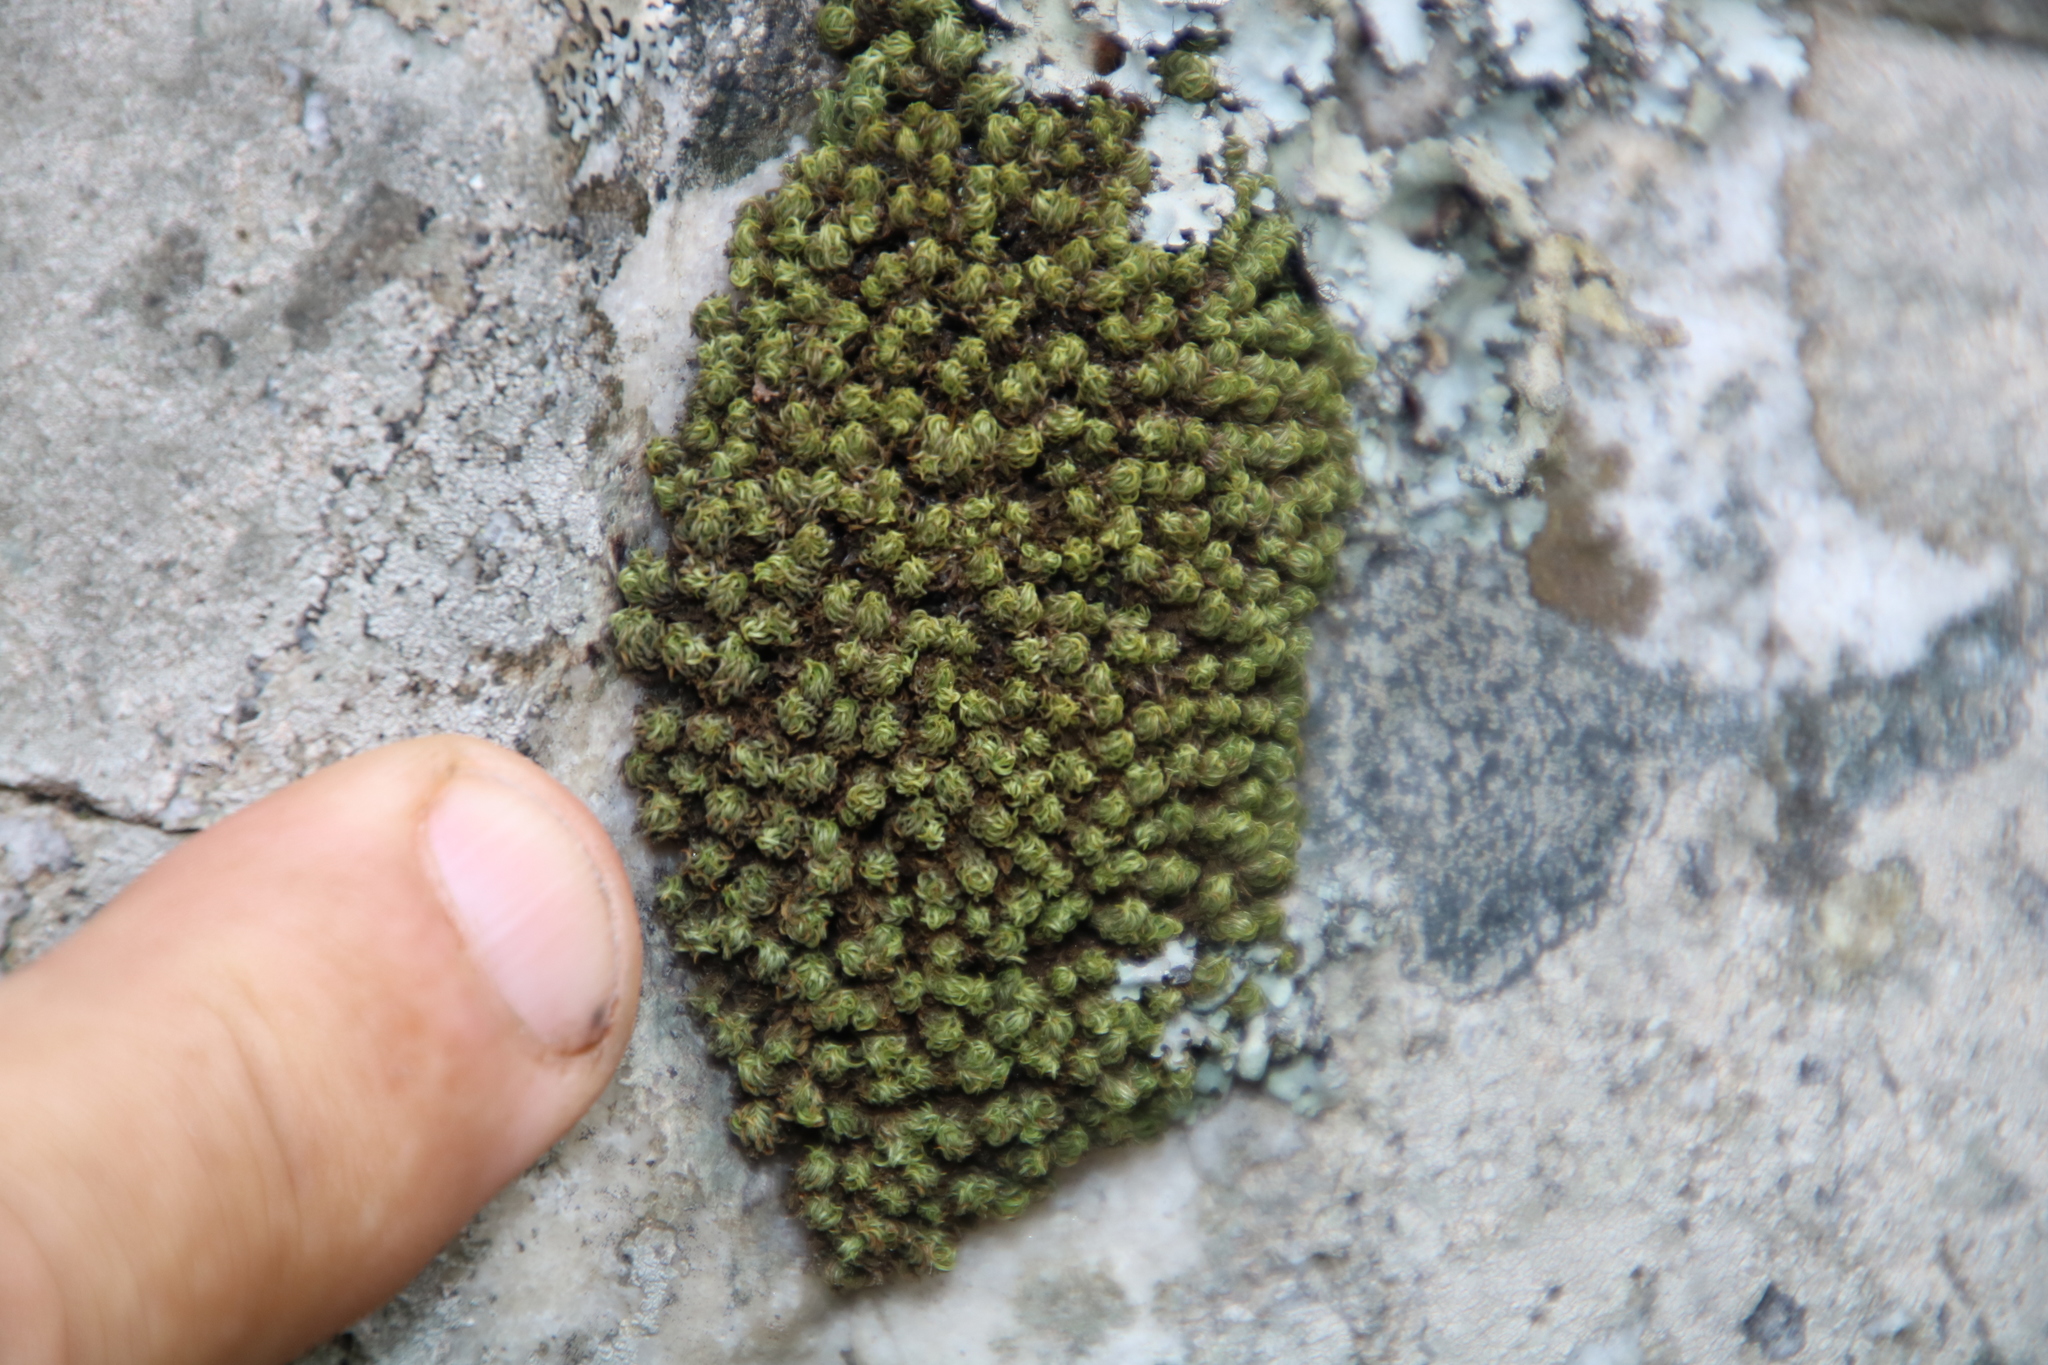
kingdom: Plantae
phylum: Bryophyta
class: Bryopsida
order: Dicranales
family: Hypodontiaceae
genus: Hypodontium
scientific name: Hypodontium dregei
